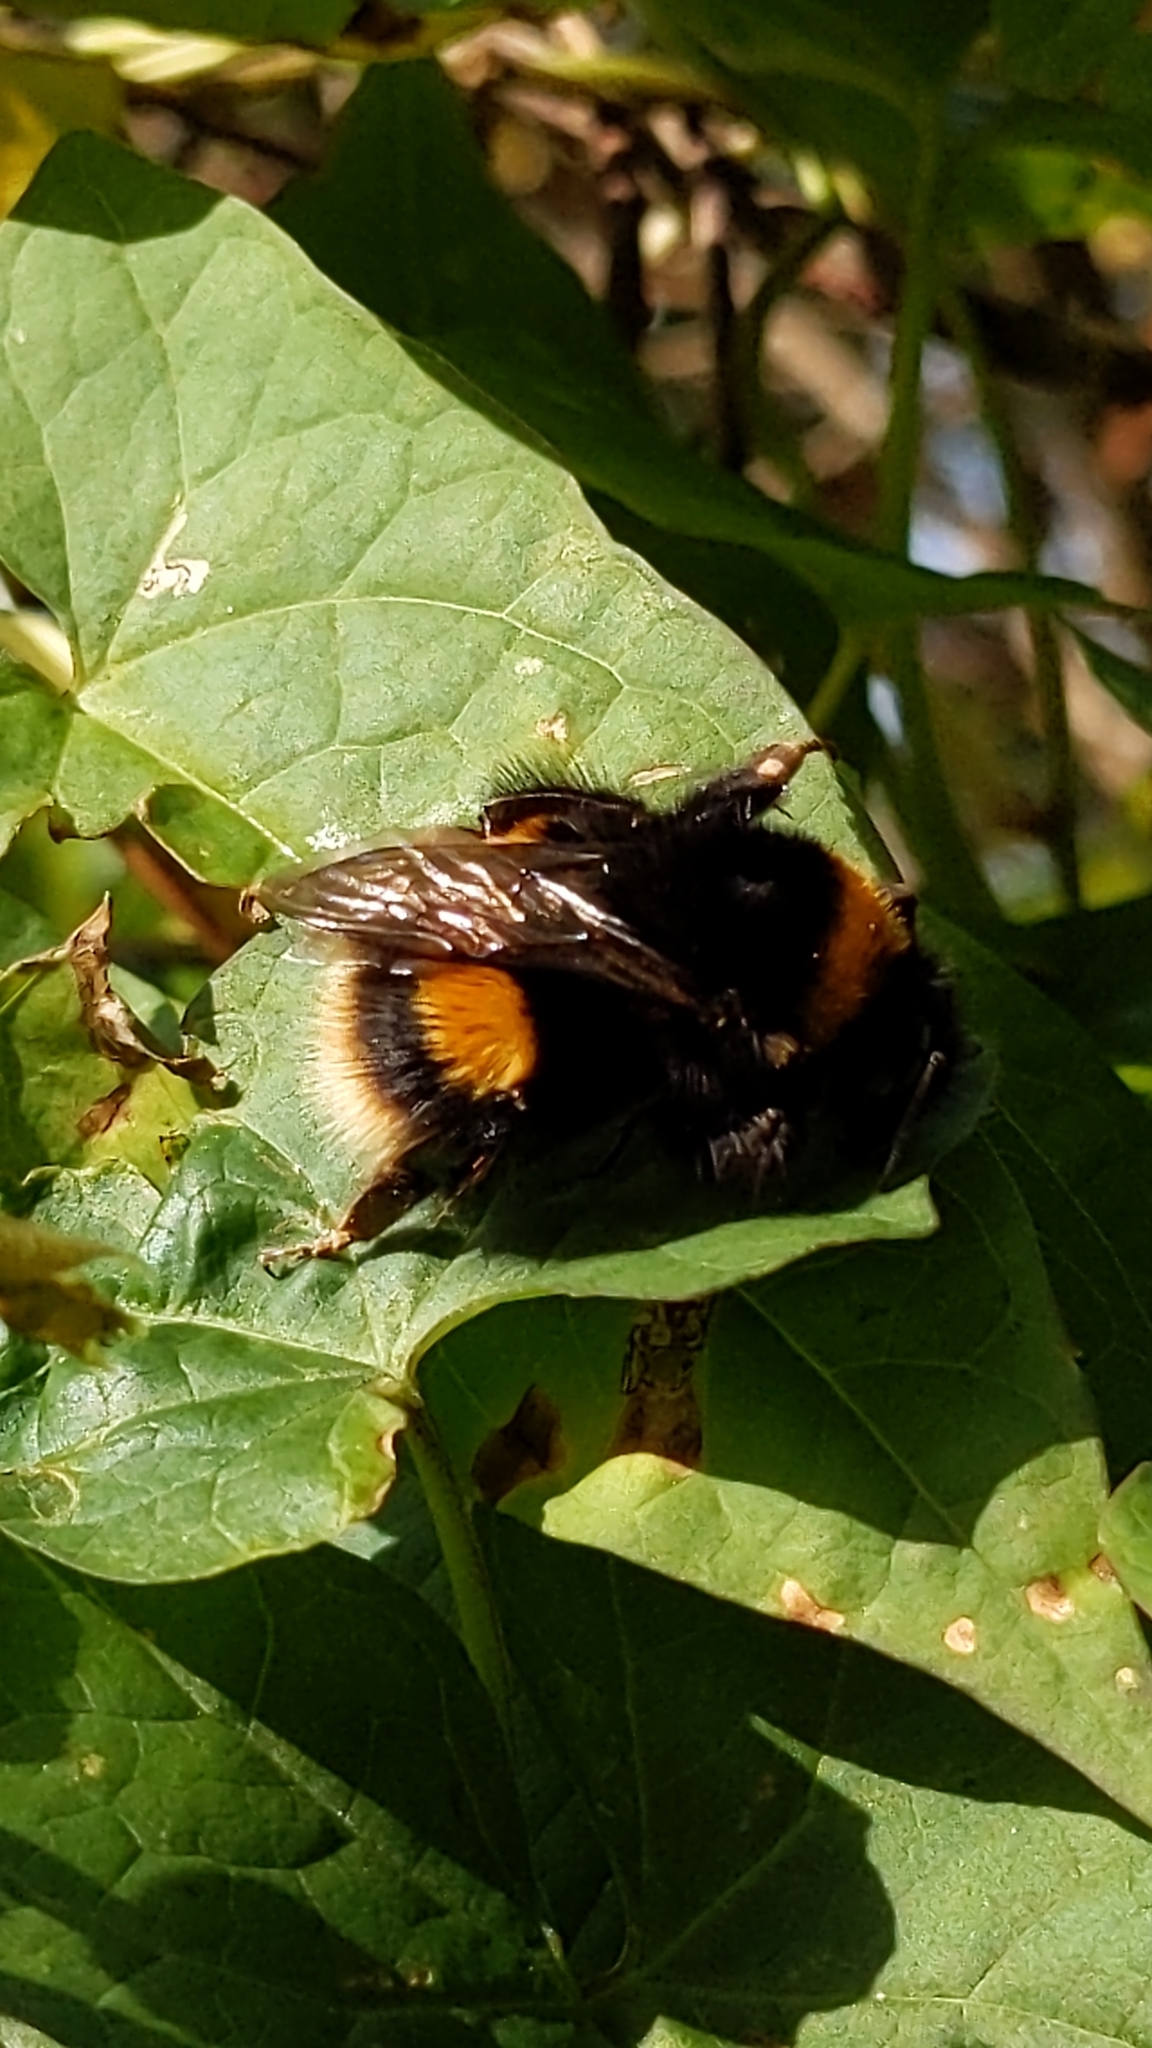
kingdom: Animalia
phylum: Arthropoda
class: Insecta
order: Hymenoptera
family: Apidae
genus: Bombus
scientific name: Bombus terrestris
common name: Buff-tailed bumblebee
